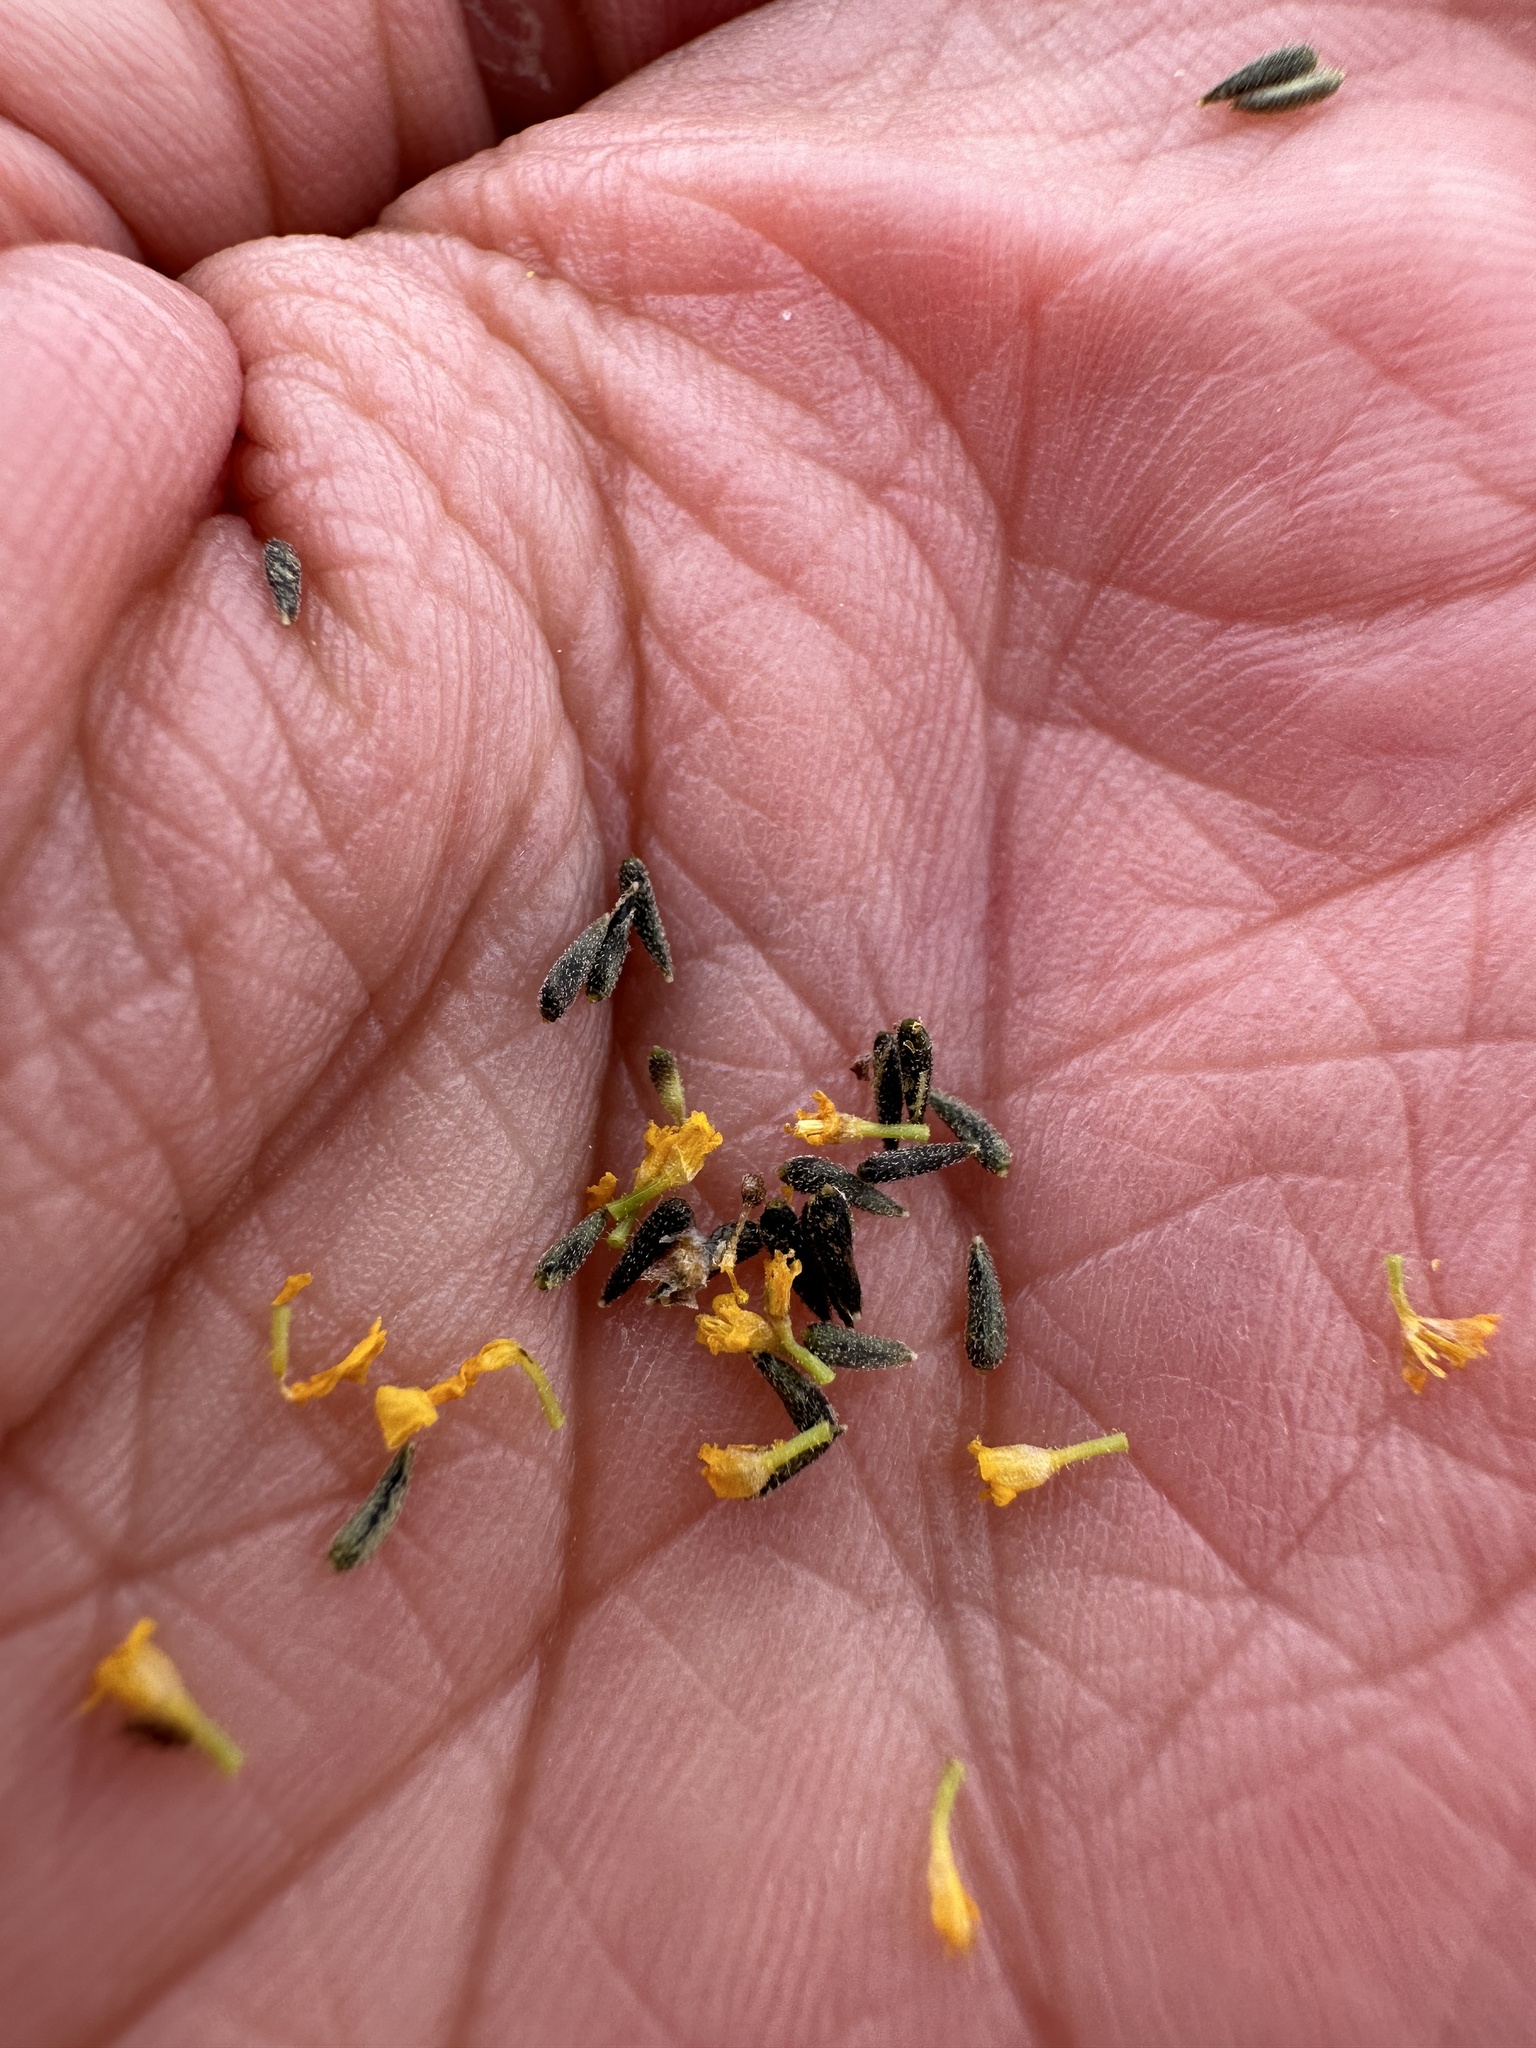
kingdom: Plantae
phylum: Tracheophyta
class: Magnoliopsida
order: Asterales
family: Asteraceae
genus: Lasthenia
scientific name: Lasthenia ferrisiae
